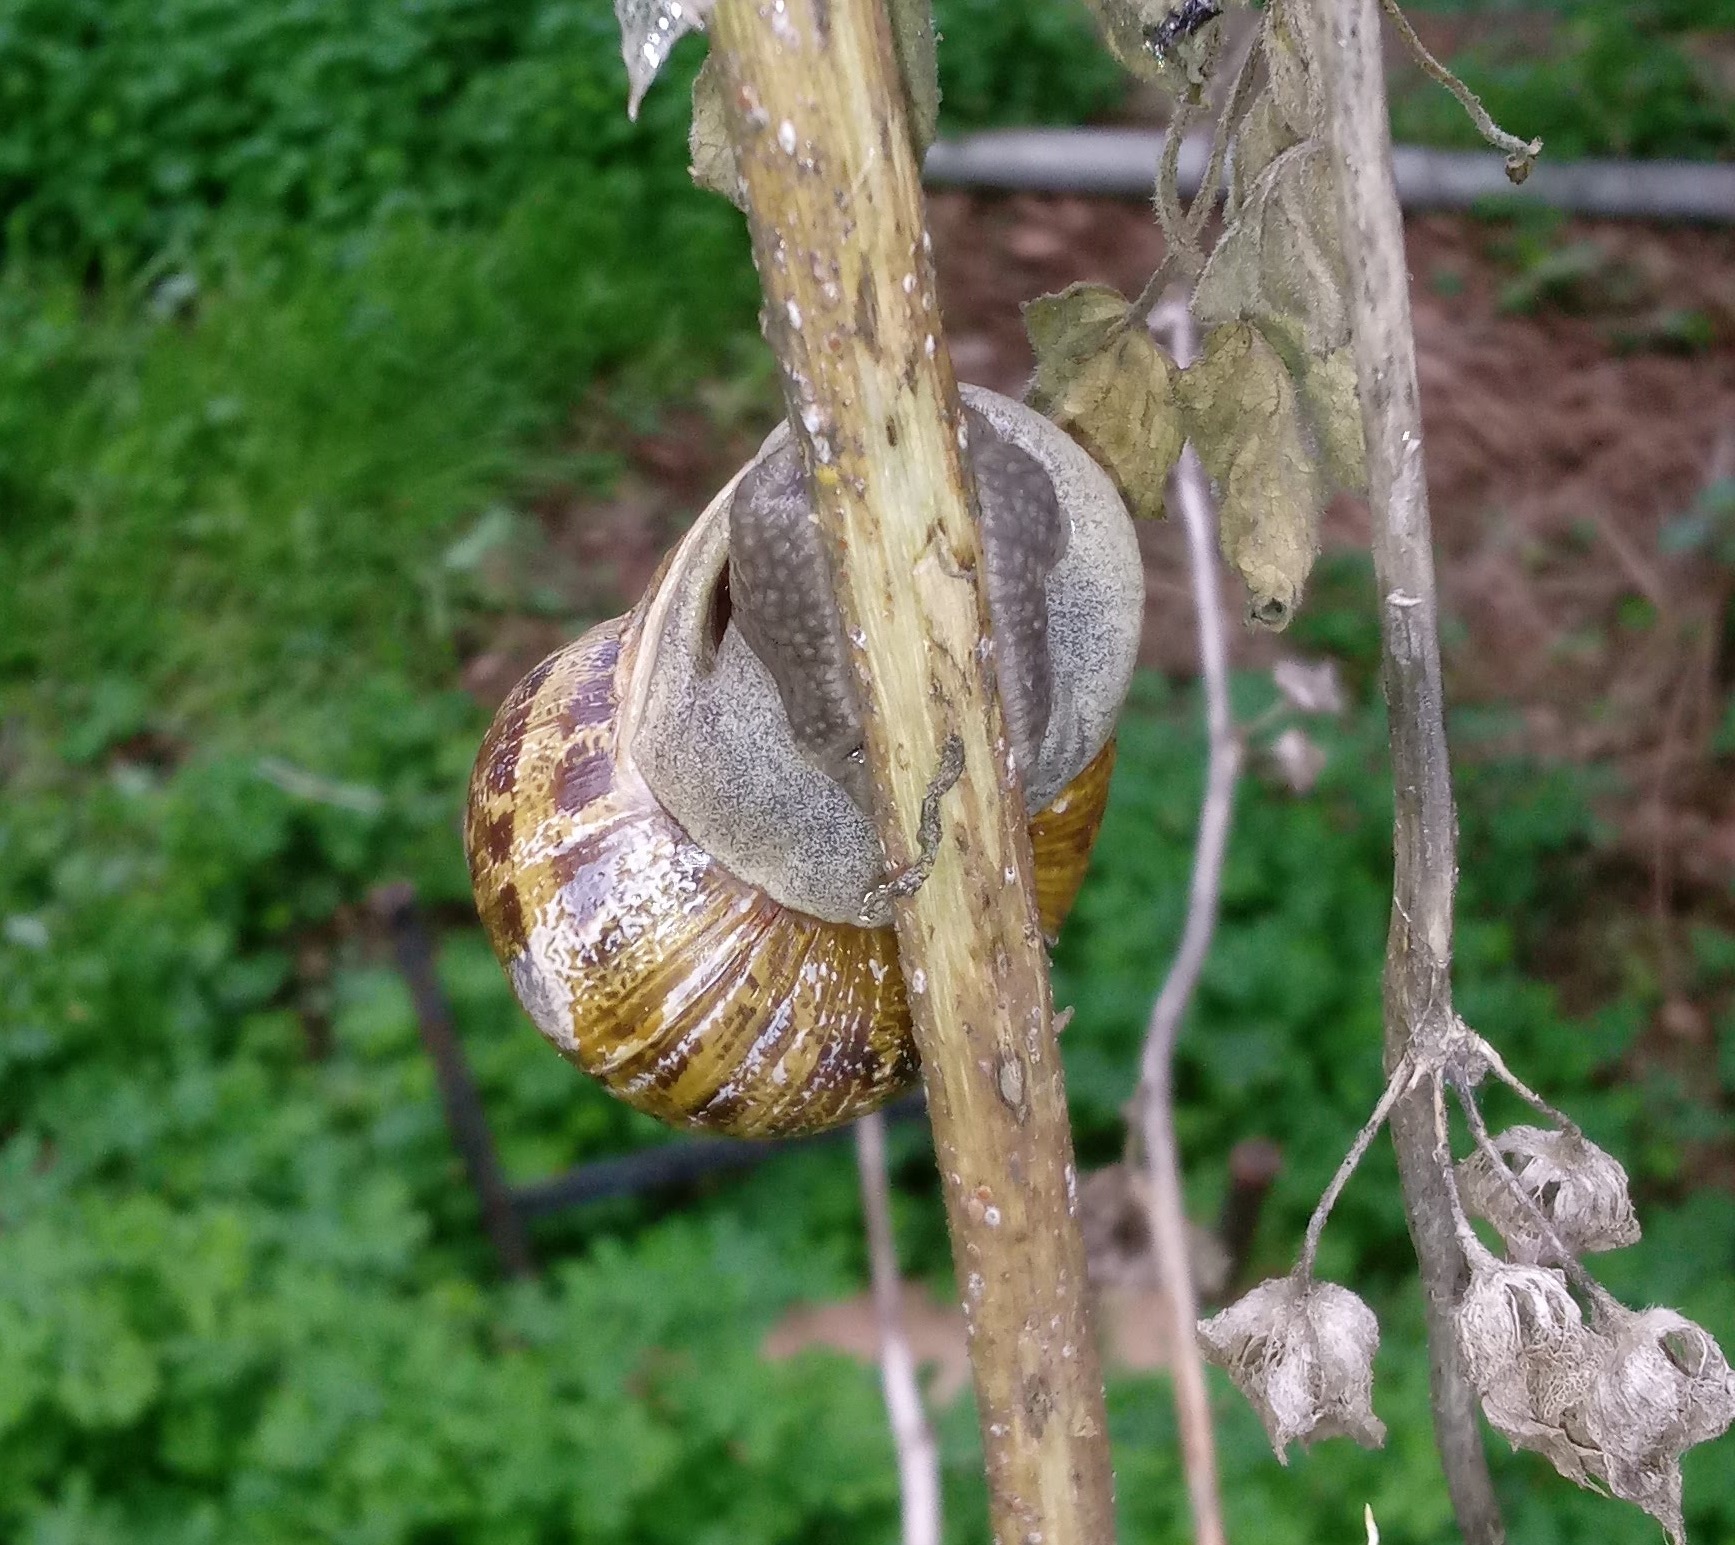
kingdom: Animalia
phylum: Mollusca
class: Gastropoda
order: Stylommatophora
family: Helicidae
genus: Cornu
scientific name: Cornu aspersum
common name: Brown garden snail
